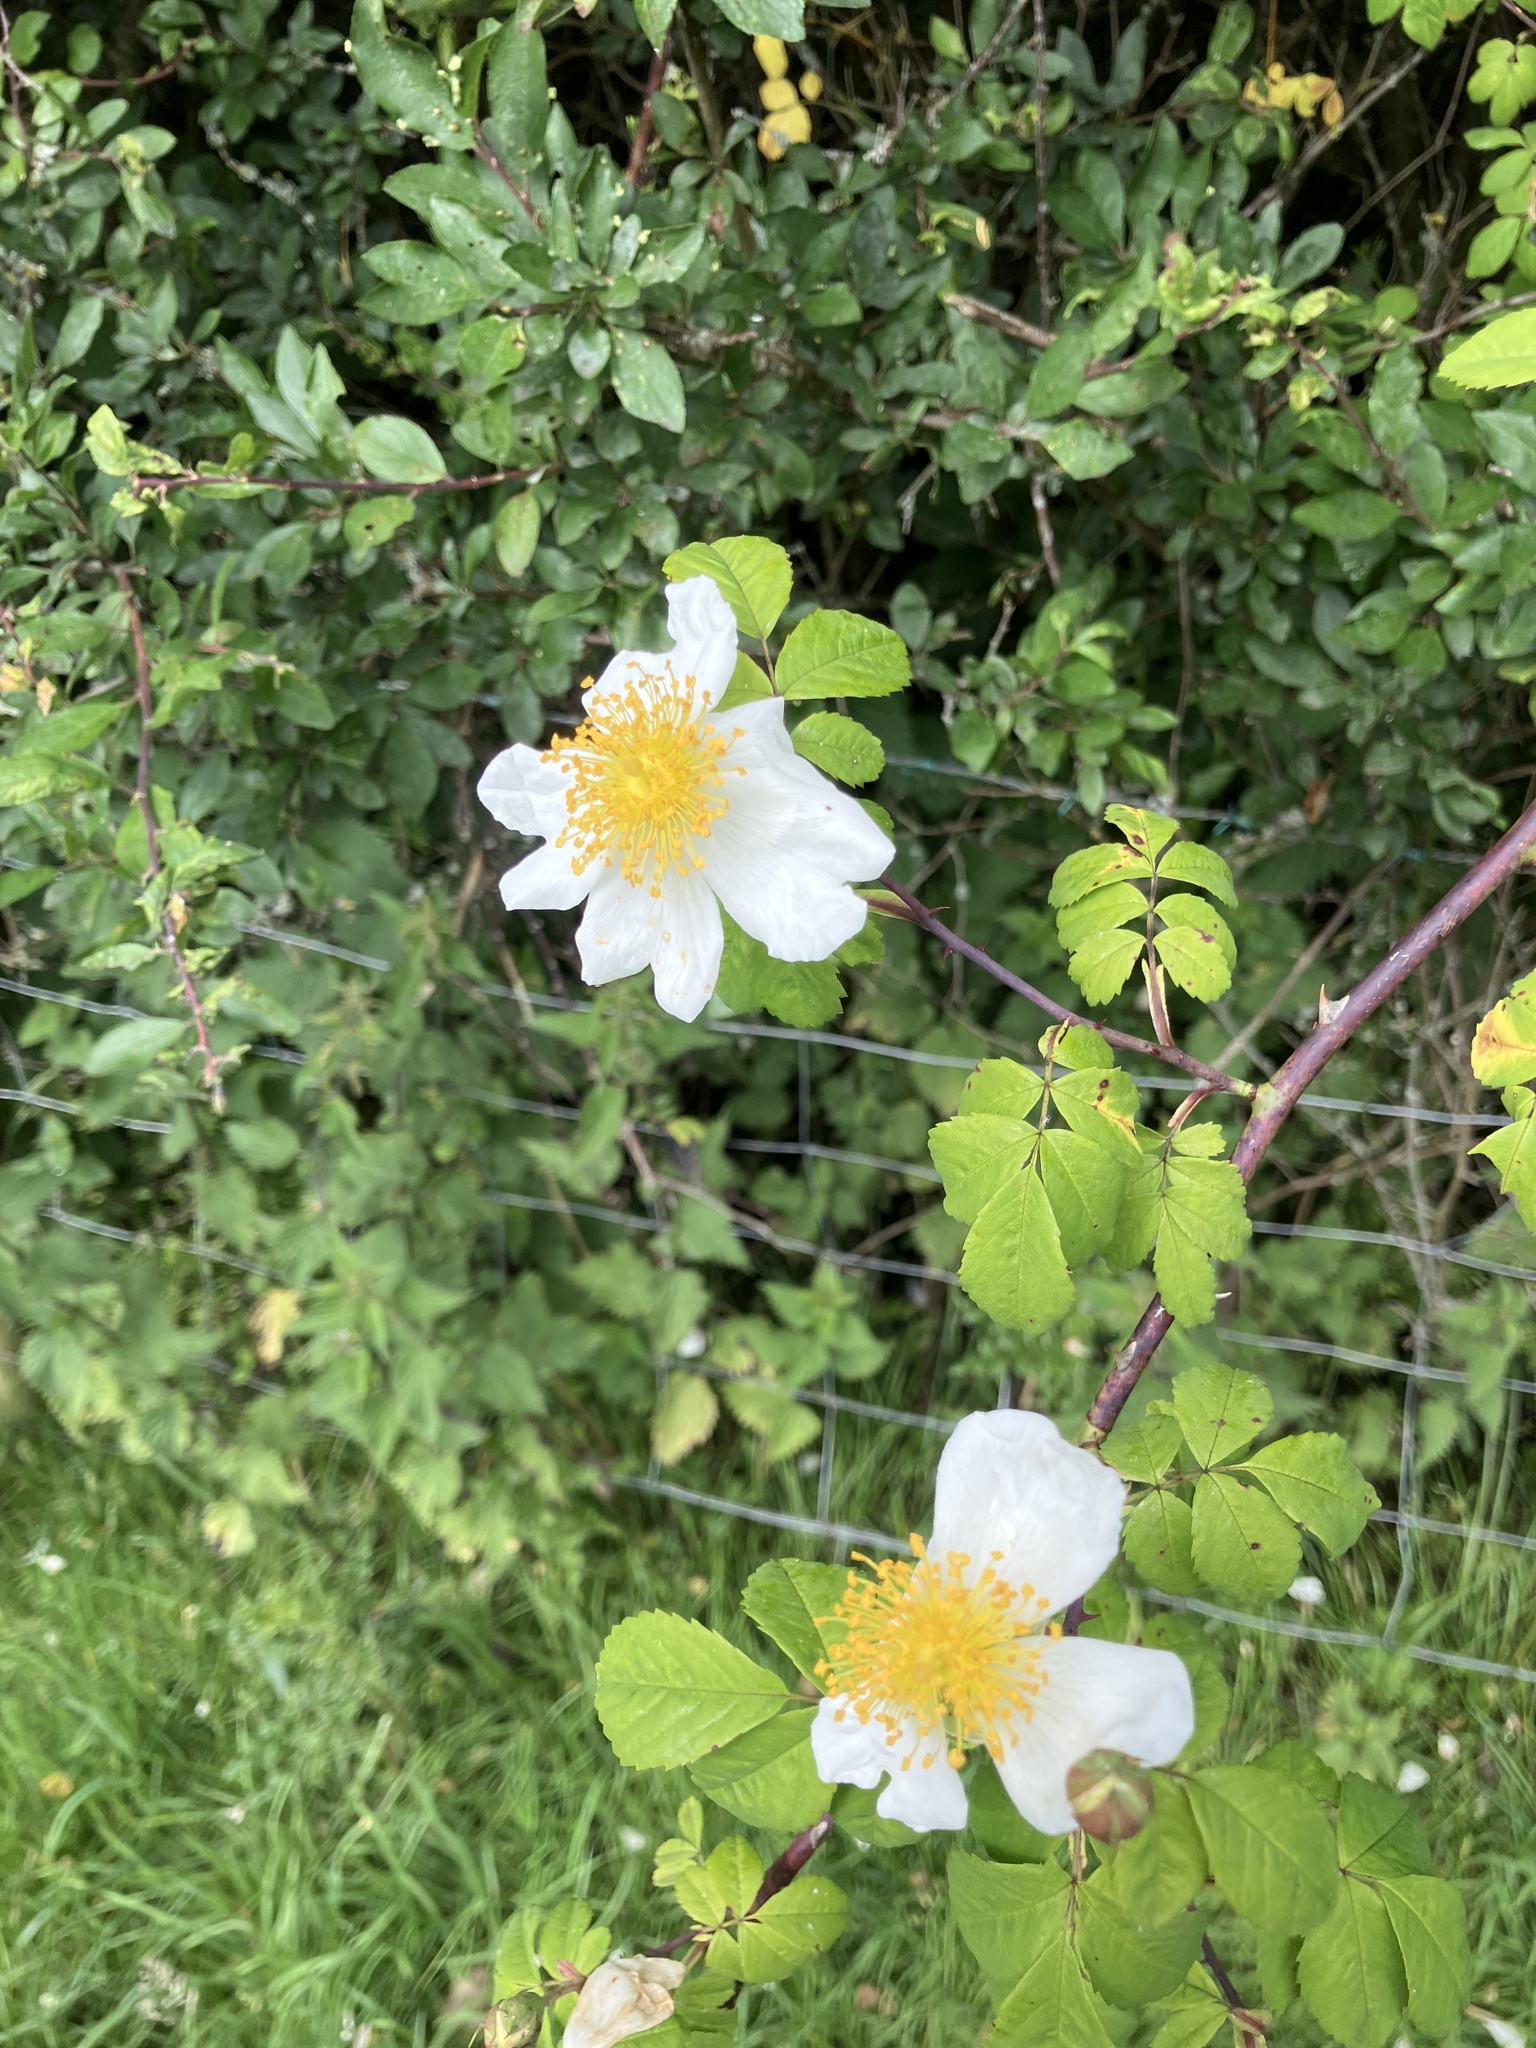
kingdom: Plantae
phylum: Tracheophyta
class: Magnoliopsida
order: Rosales
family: Rosaceae
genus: Rosa
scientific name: Rosa arvensis
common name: Field rose
